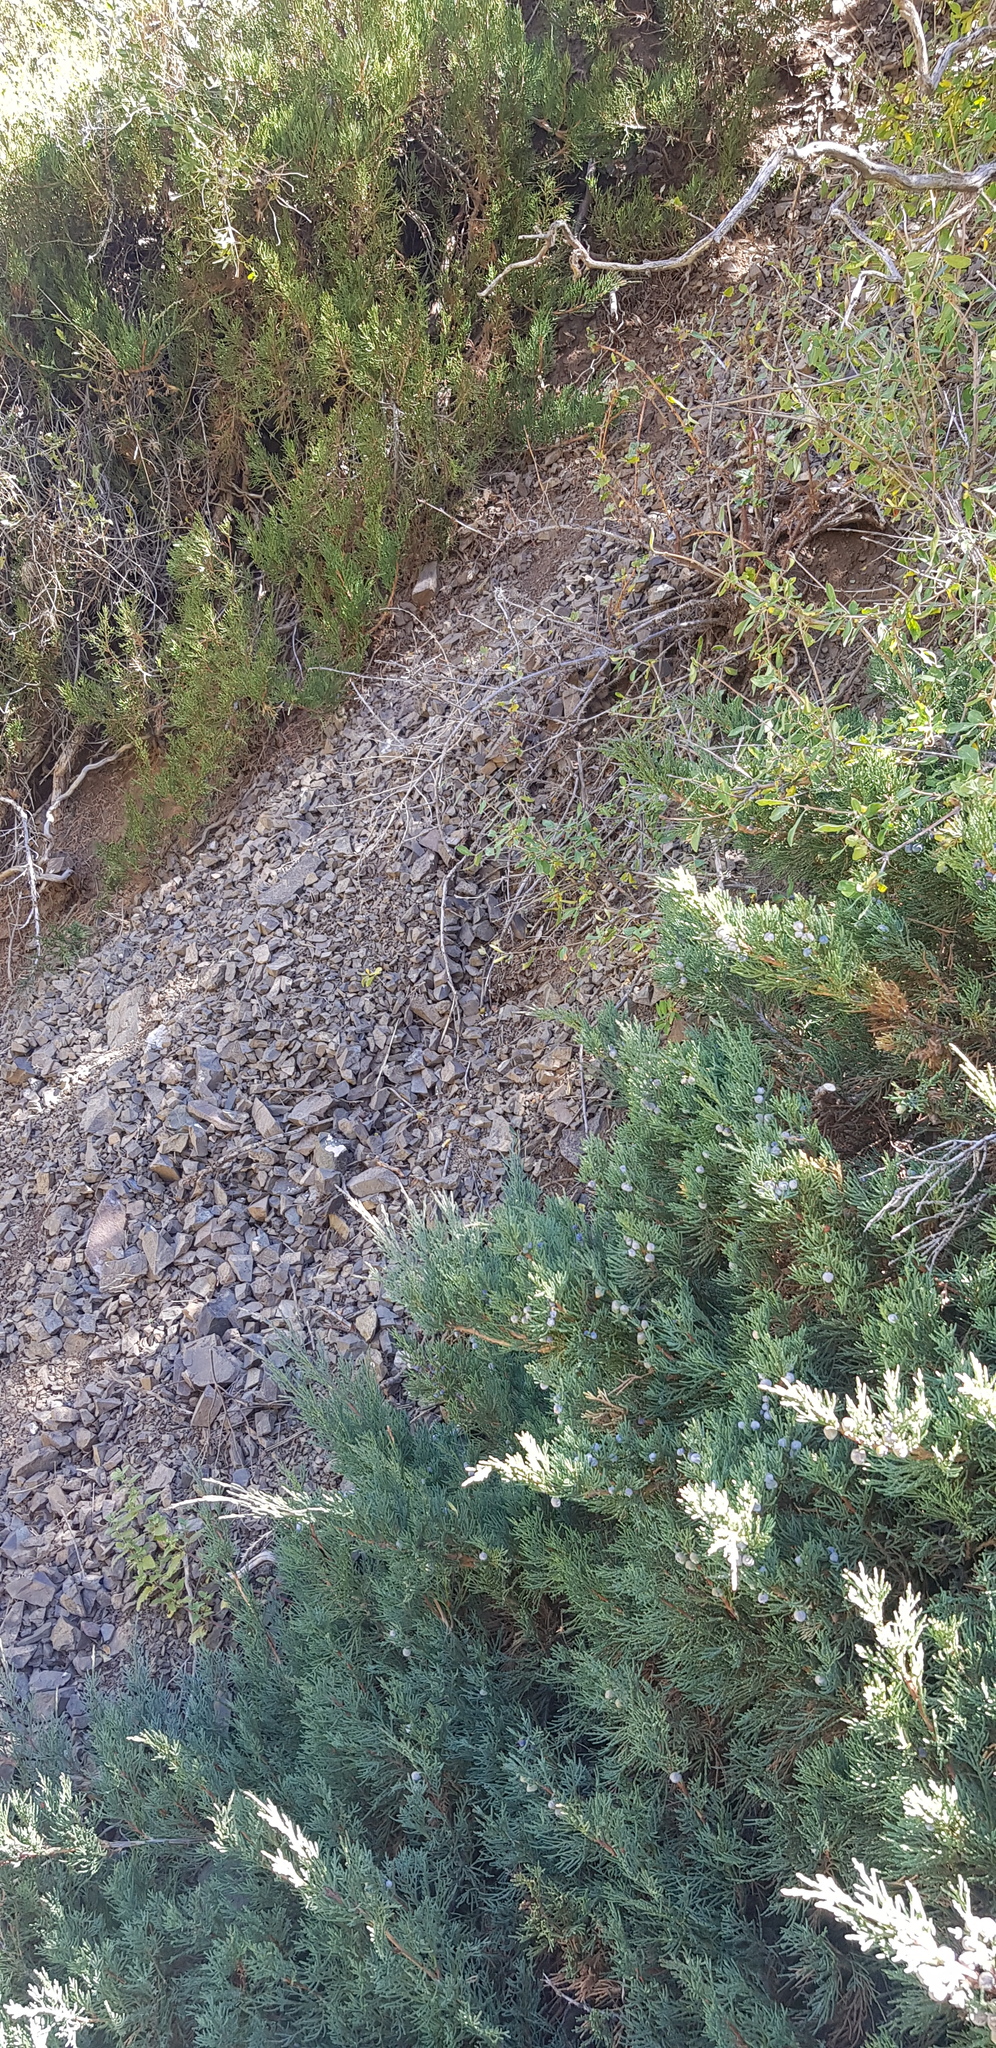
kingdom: Plantae
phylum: Tracheophyta
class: Pinopsida
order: Pinales
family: Cupressaceae
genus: Juniperus
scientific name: Juniperus sabina
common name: Savin
